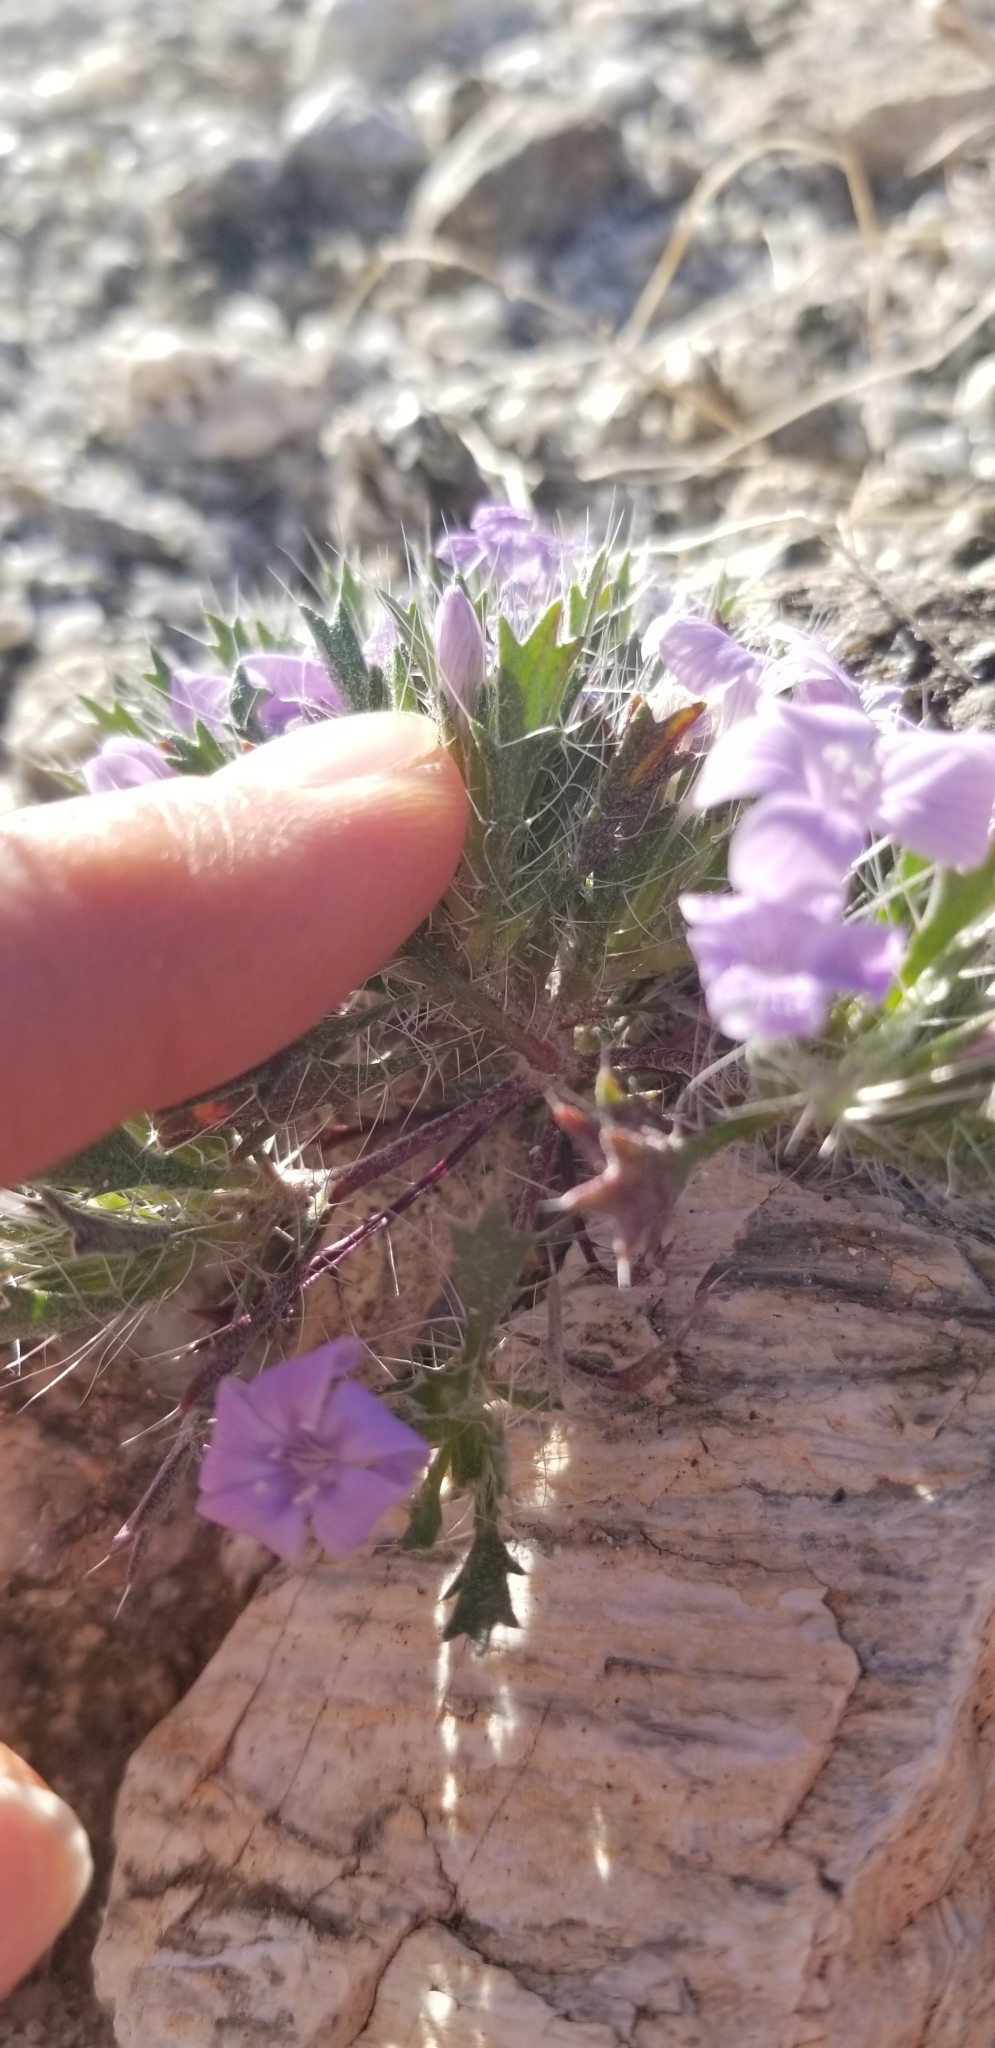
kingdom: Plantae
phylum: Tracheophyta
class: Magnoliopsida
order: Ericales
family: Polemoniaceae
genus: Langloisia
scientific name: Langloisia setosissima
